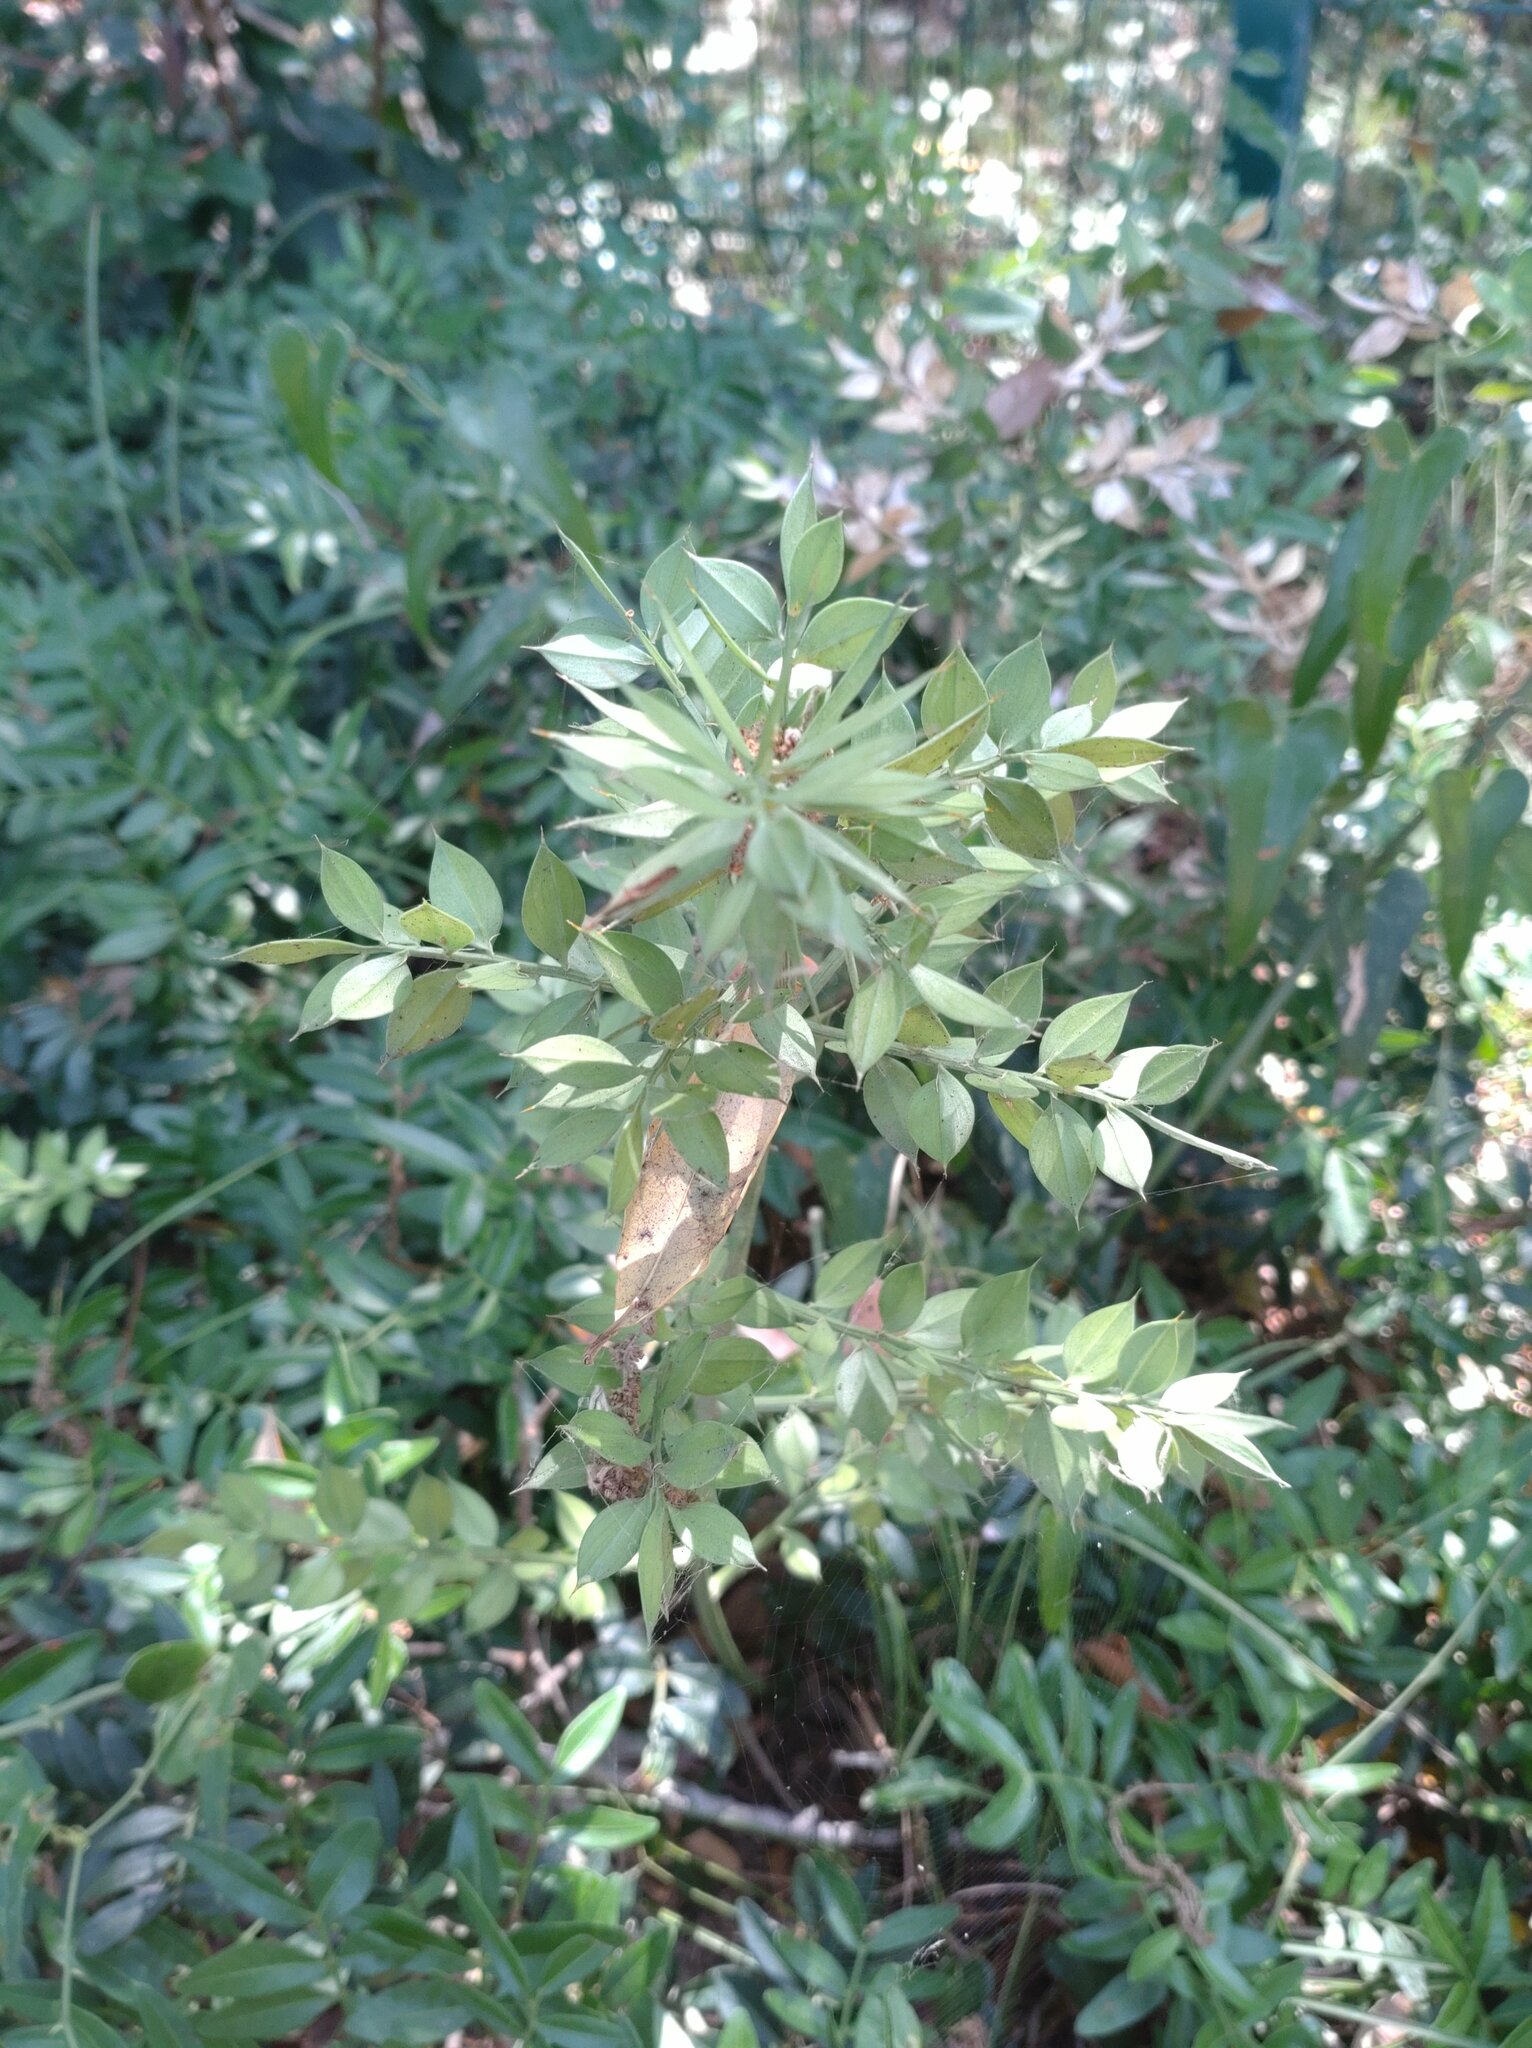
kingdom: Plantae
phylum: Tracheophyta
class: Liliopsida
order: Asparagales
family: Asparagaceae
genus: Ruscus
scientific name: Ruscus aculeatus
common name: Butcher's-broom
